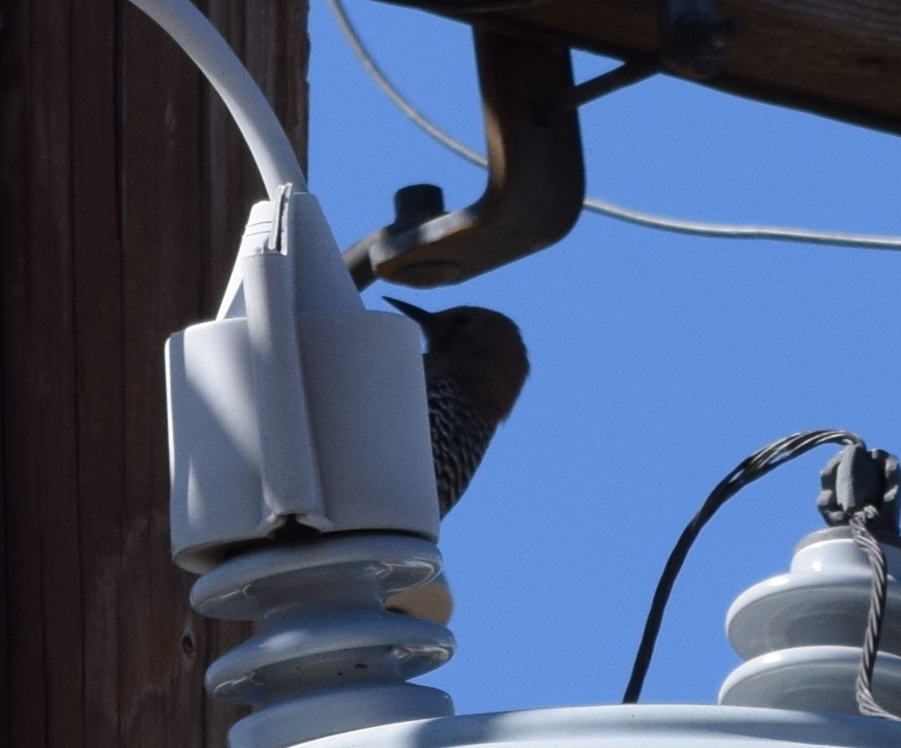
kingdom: Animalia
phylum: Chordata
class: Aves
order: Piciformes
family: Picidae
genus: Melanerpes
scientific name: Melanerpes uropygialis
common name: Gila woodpecker
